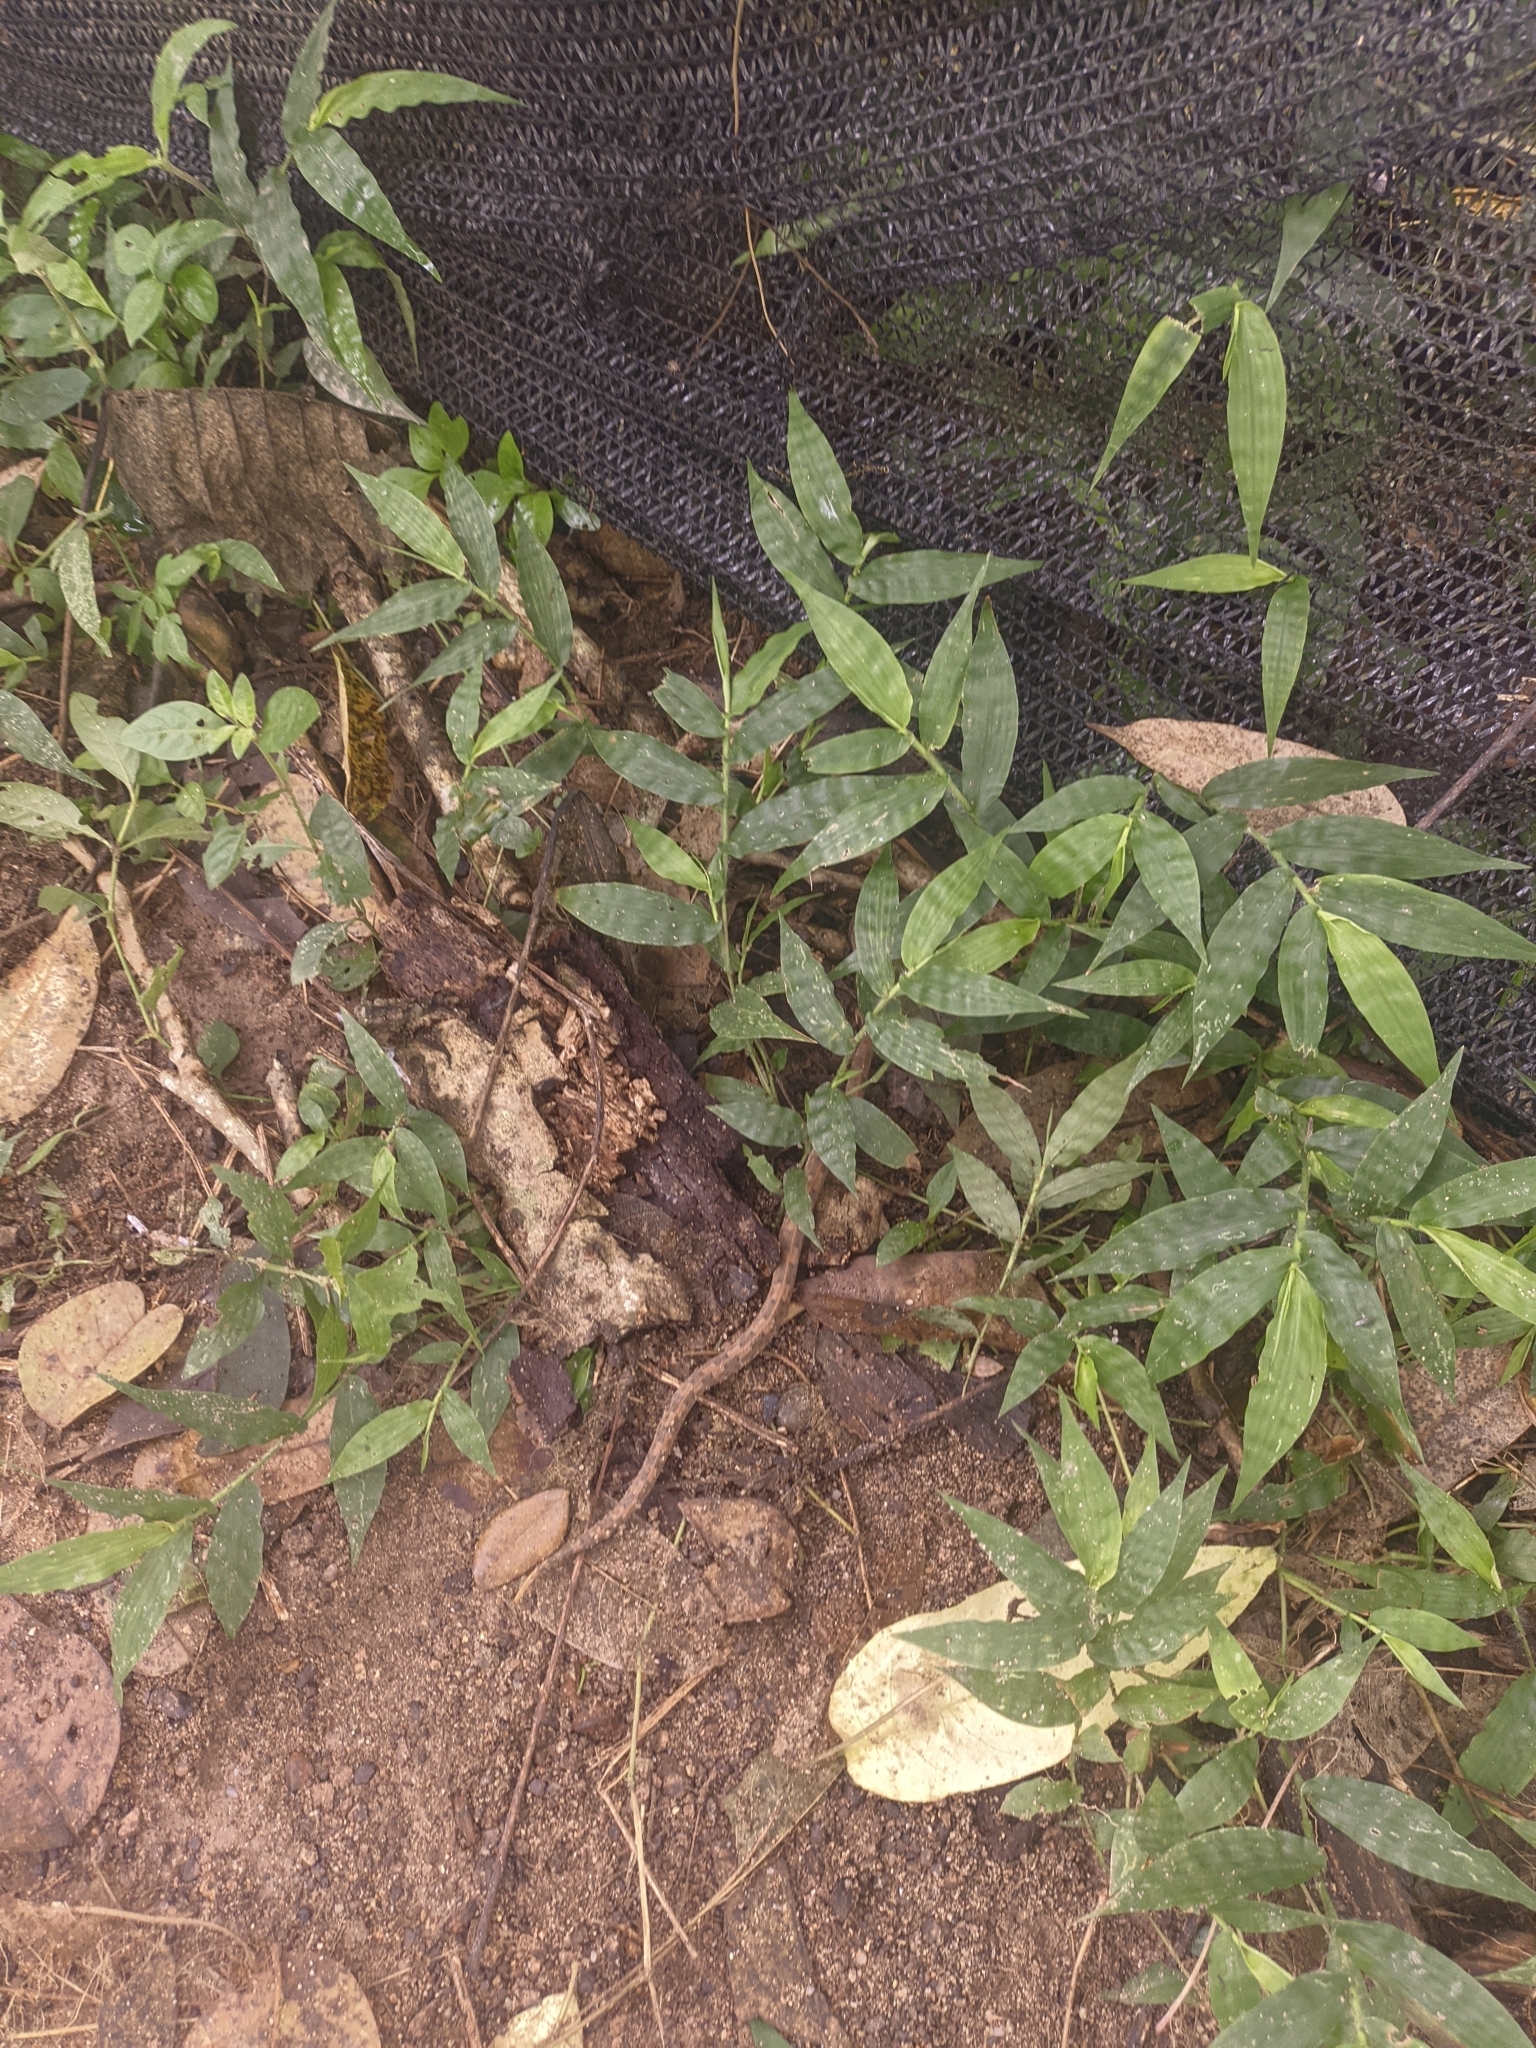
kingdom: Animalia
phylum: Chordata
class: Squamata
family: Viperidae
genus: Porthidium
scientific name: Porthidium lansbergii
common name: Lansberg's hognosed pit viper
